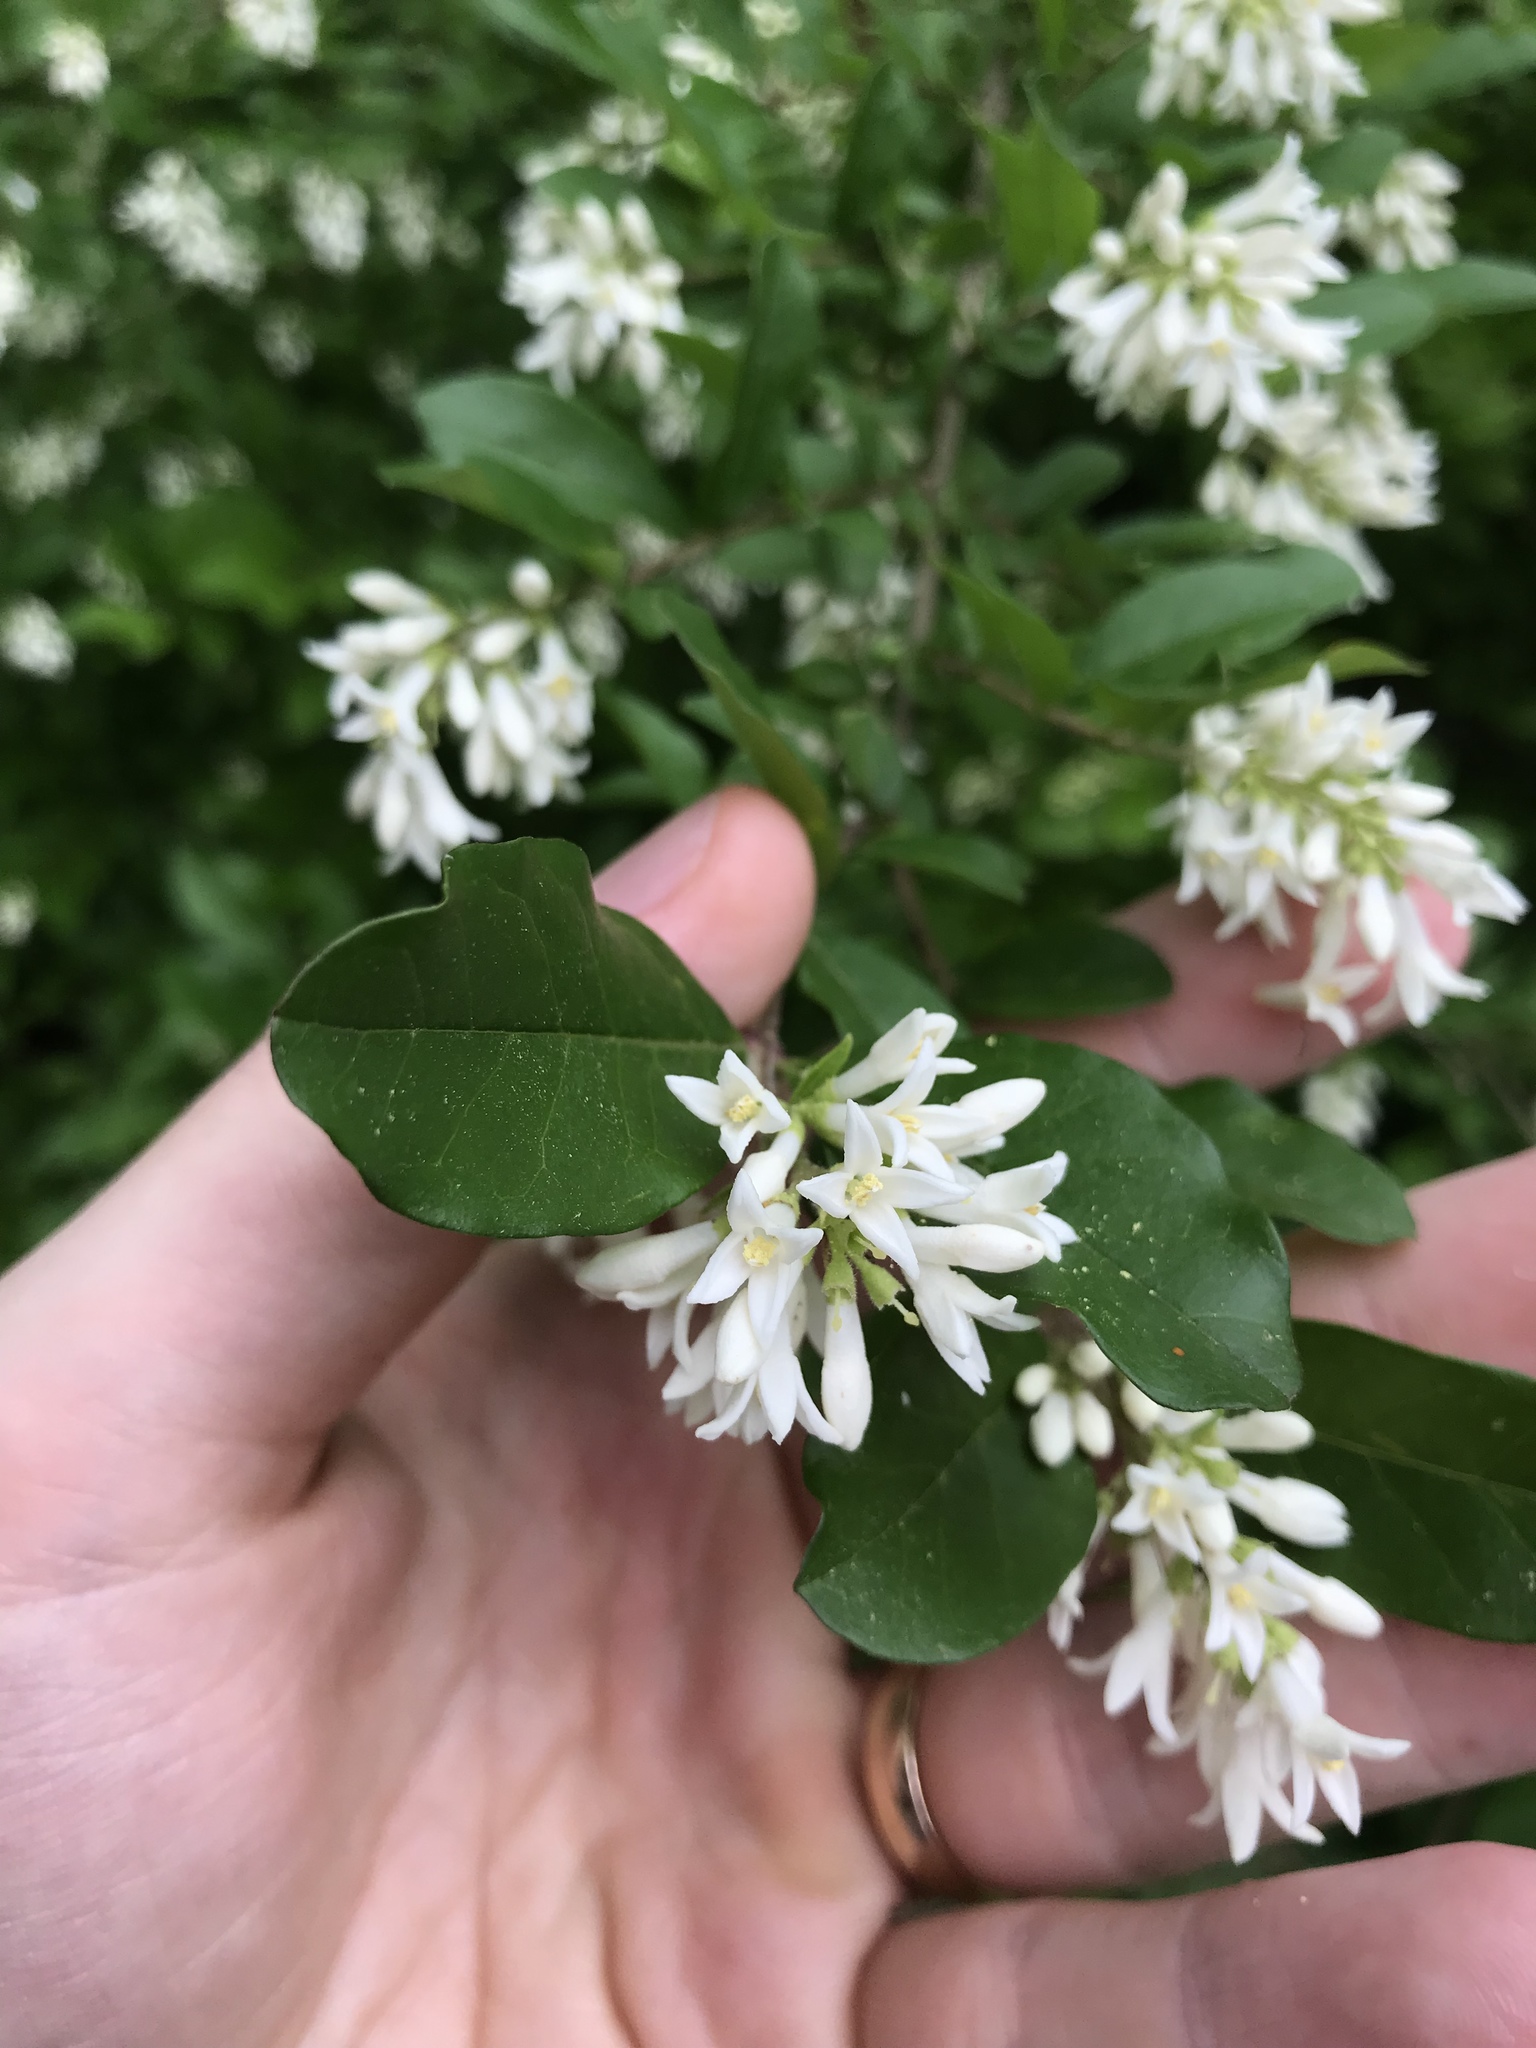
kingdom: Plantae
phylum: Tracheophyta
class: Magnoliopsida
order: Lamiales
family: Oleaceae
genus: Ligustrum
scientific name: Ligustrum obtusifolium
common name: Border privet
